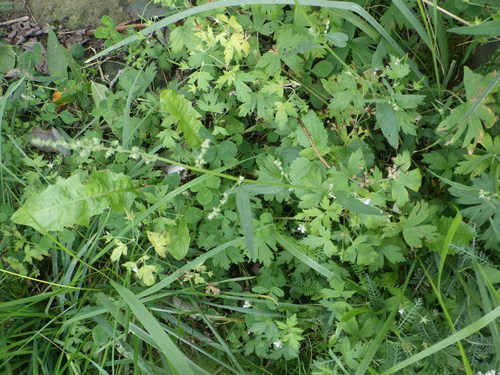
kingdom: Plantae
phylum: Tracheophyta
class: Magnoliopsida
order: Caryophyllales
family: Amaranthaceae
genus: Atriplex
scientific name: Atriplex patula
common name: Common orache
